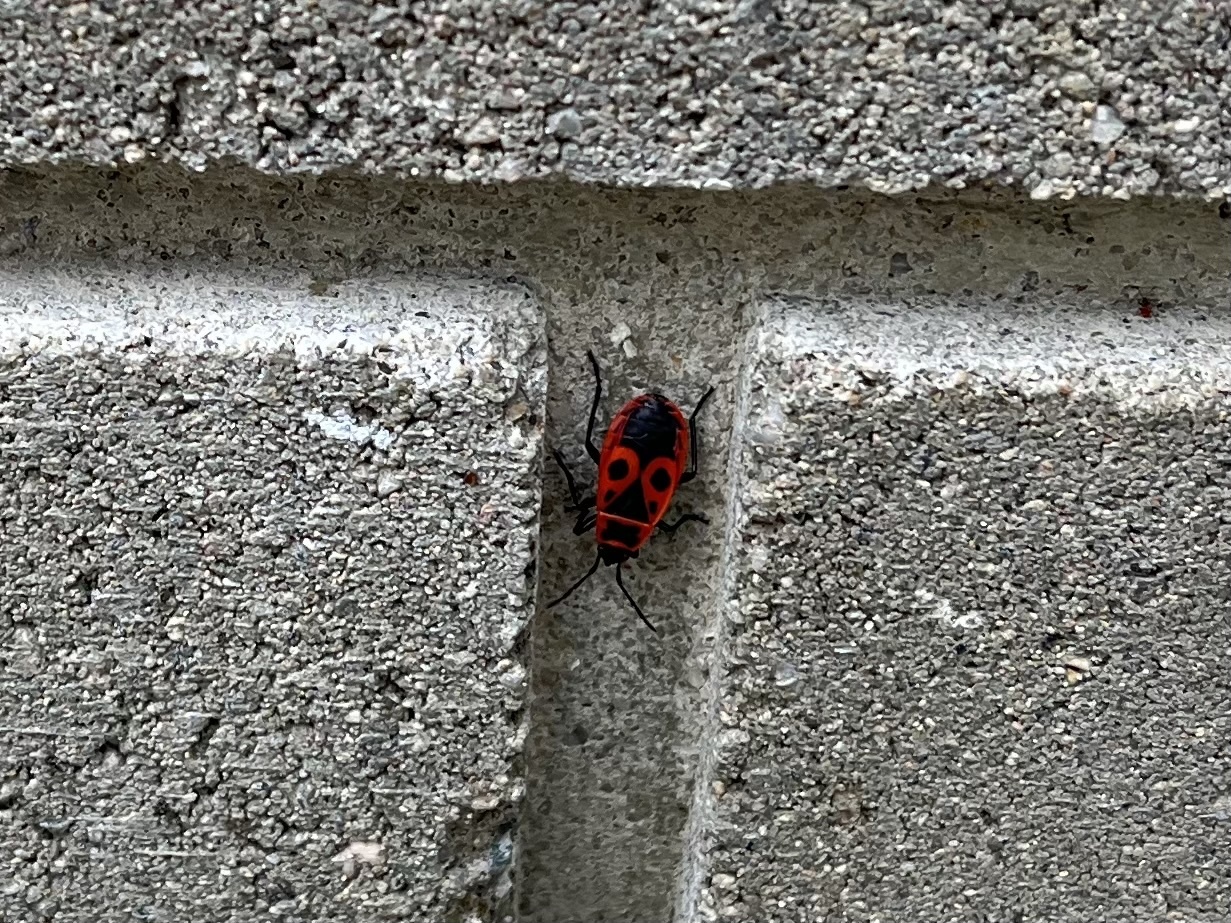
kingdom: Animalia
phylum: Arthropoda
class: Insecta
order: Hemiptera
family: Pyrrhocoridae
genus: Pyrrhocoris
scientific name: Pyrrhocoris apterus
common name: Firebug
